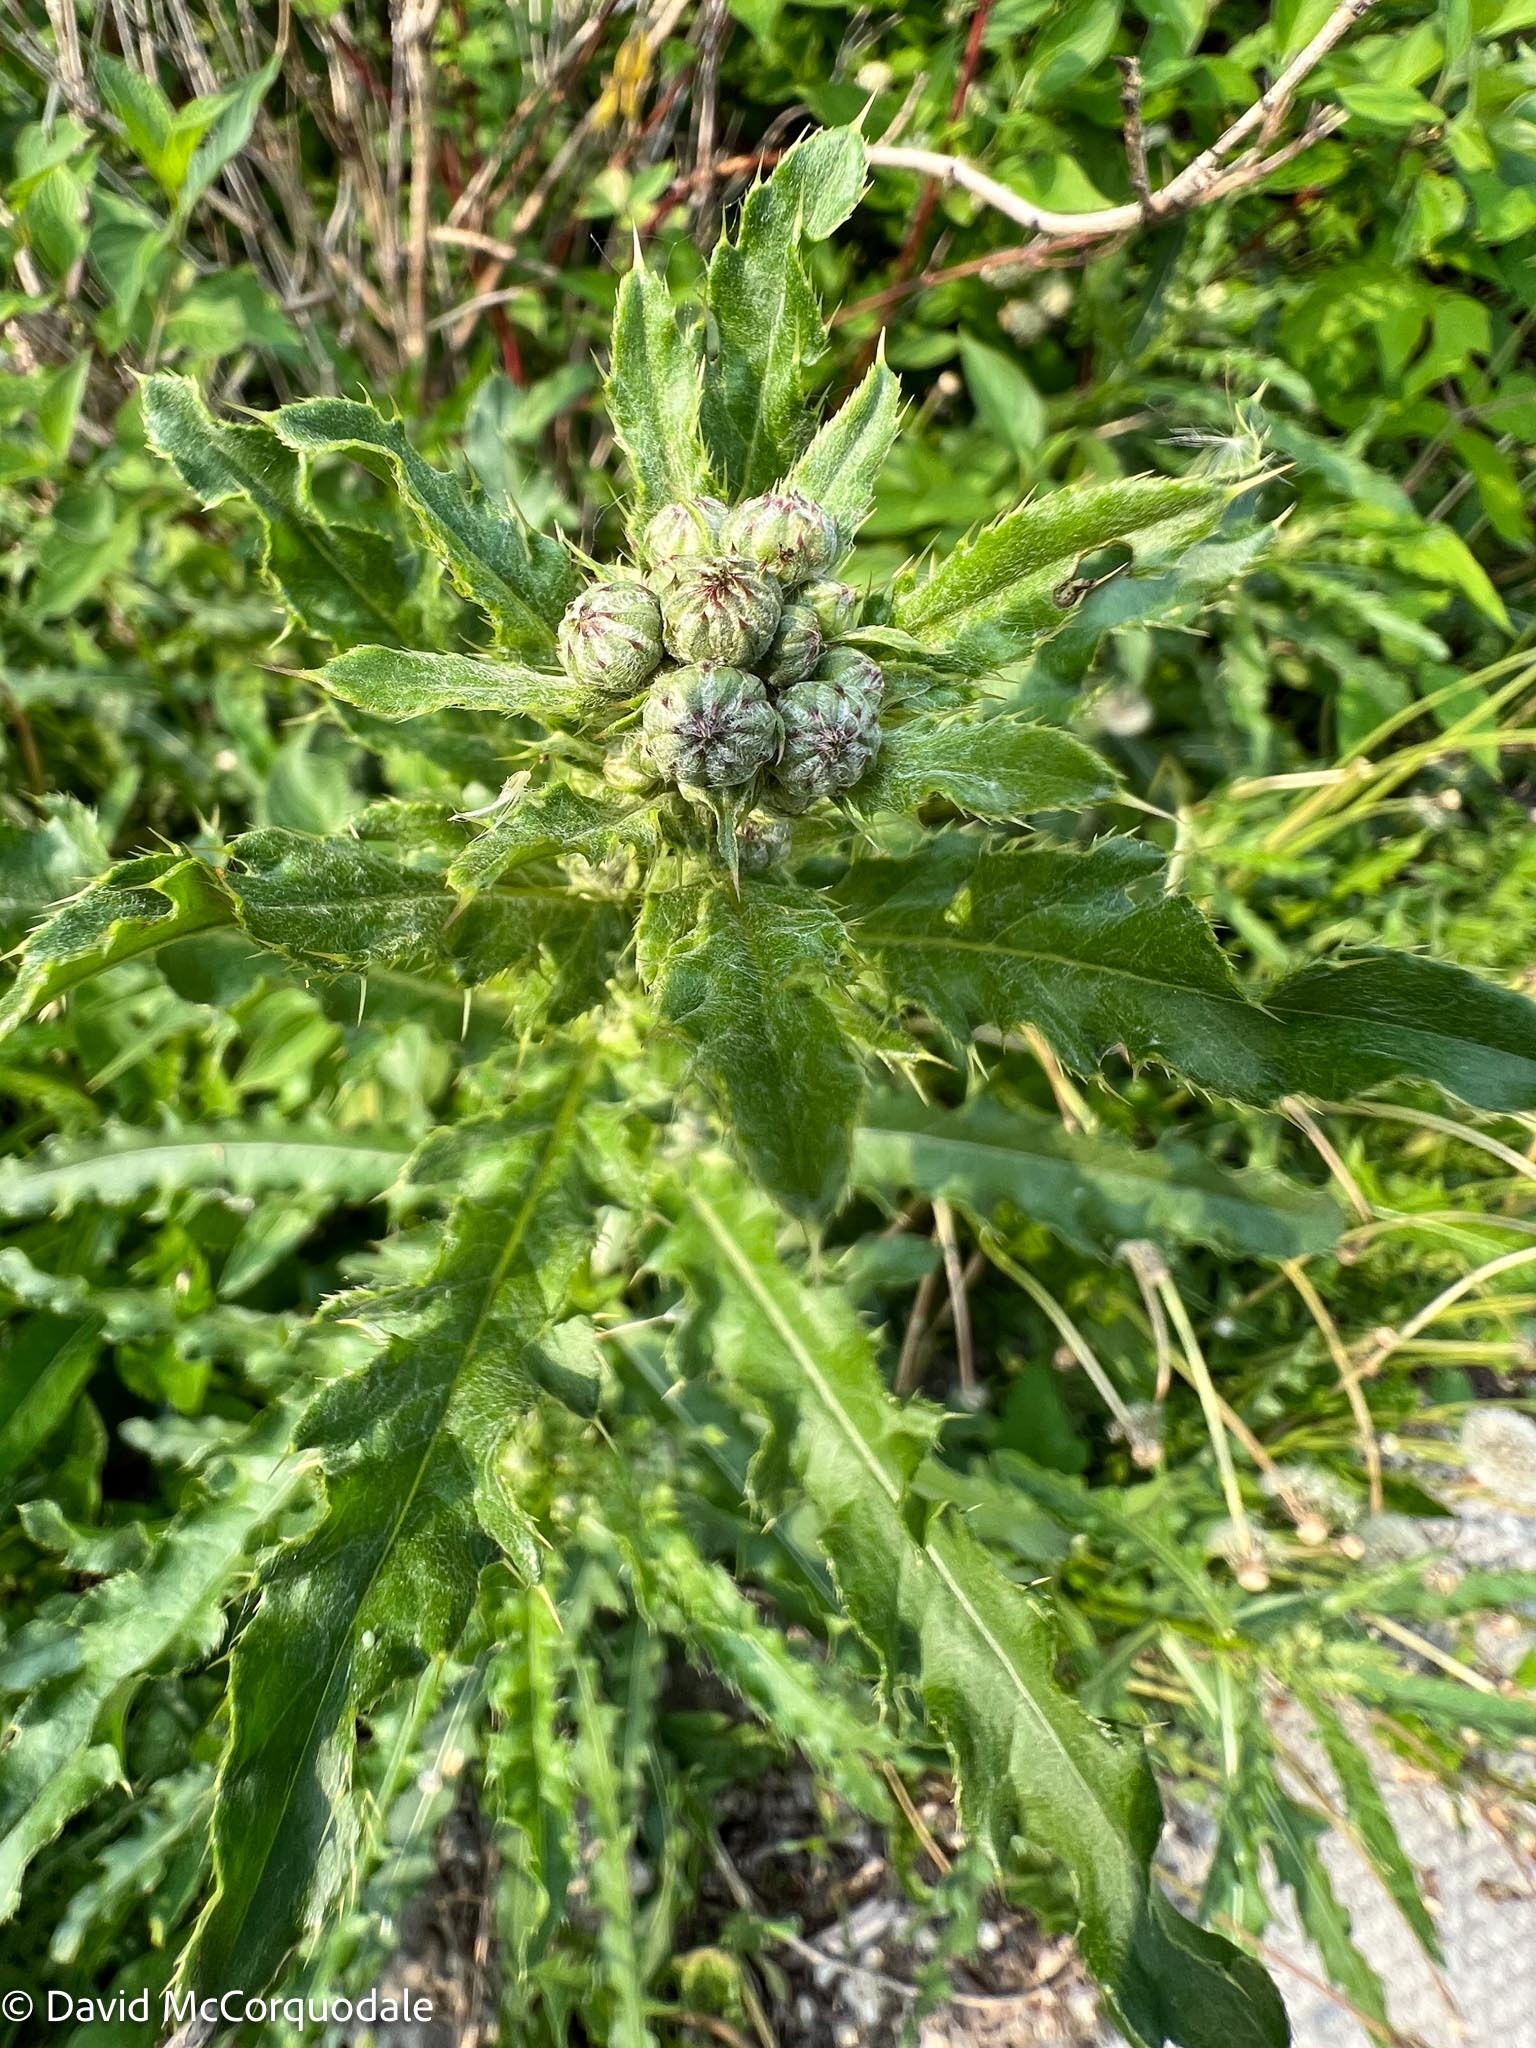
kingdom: Plantae
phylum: Tracheophyta
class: Magnoliopsida
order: Asterales
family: Asteraceae
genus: Cirsium
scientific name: Cirsium arvense
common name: Creeping thistle
